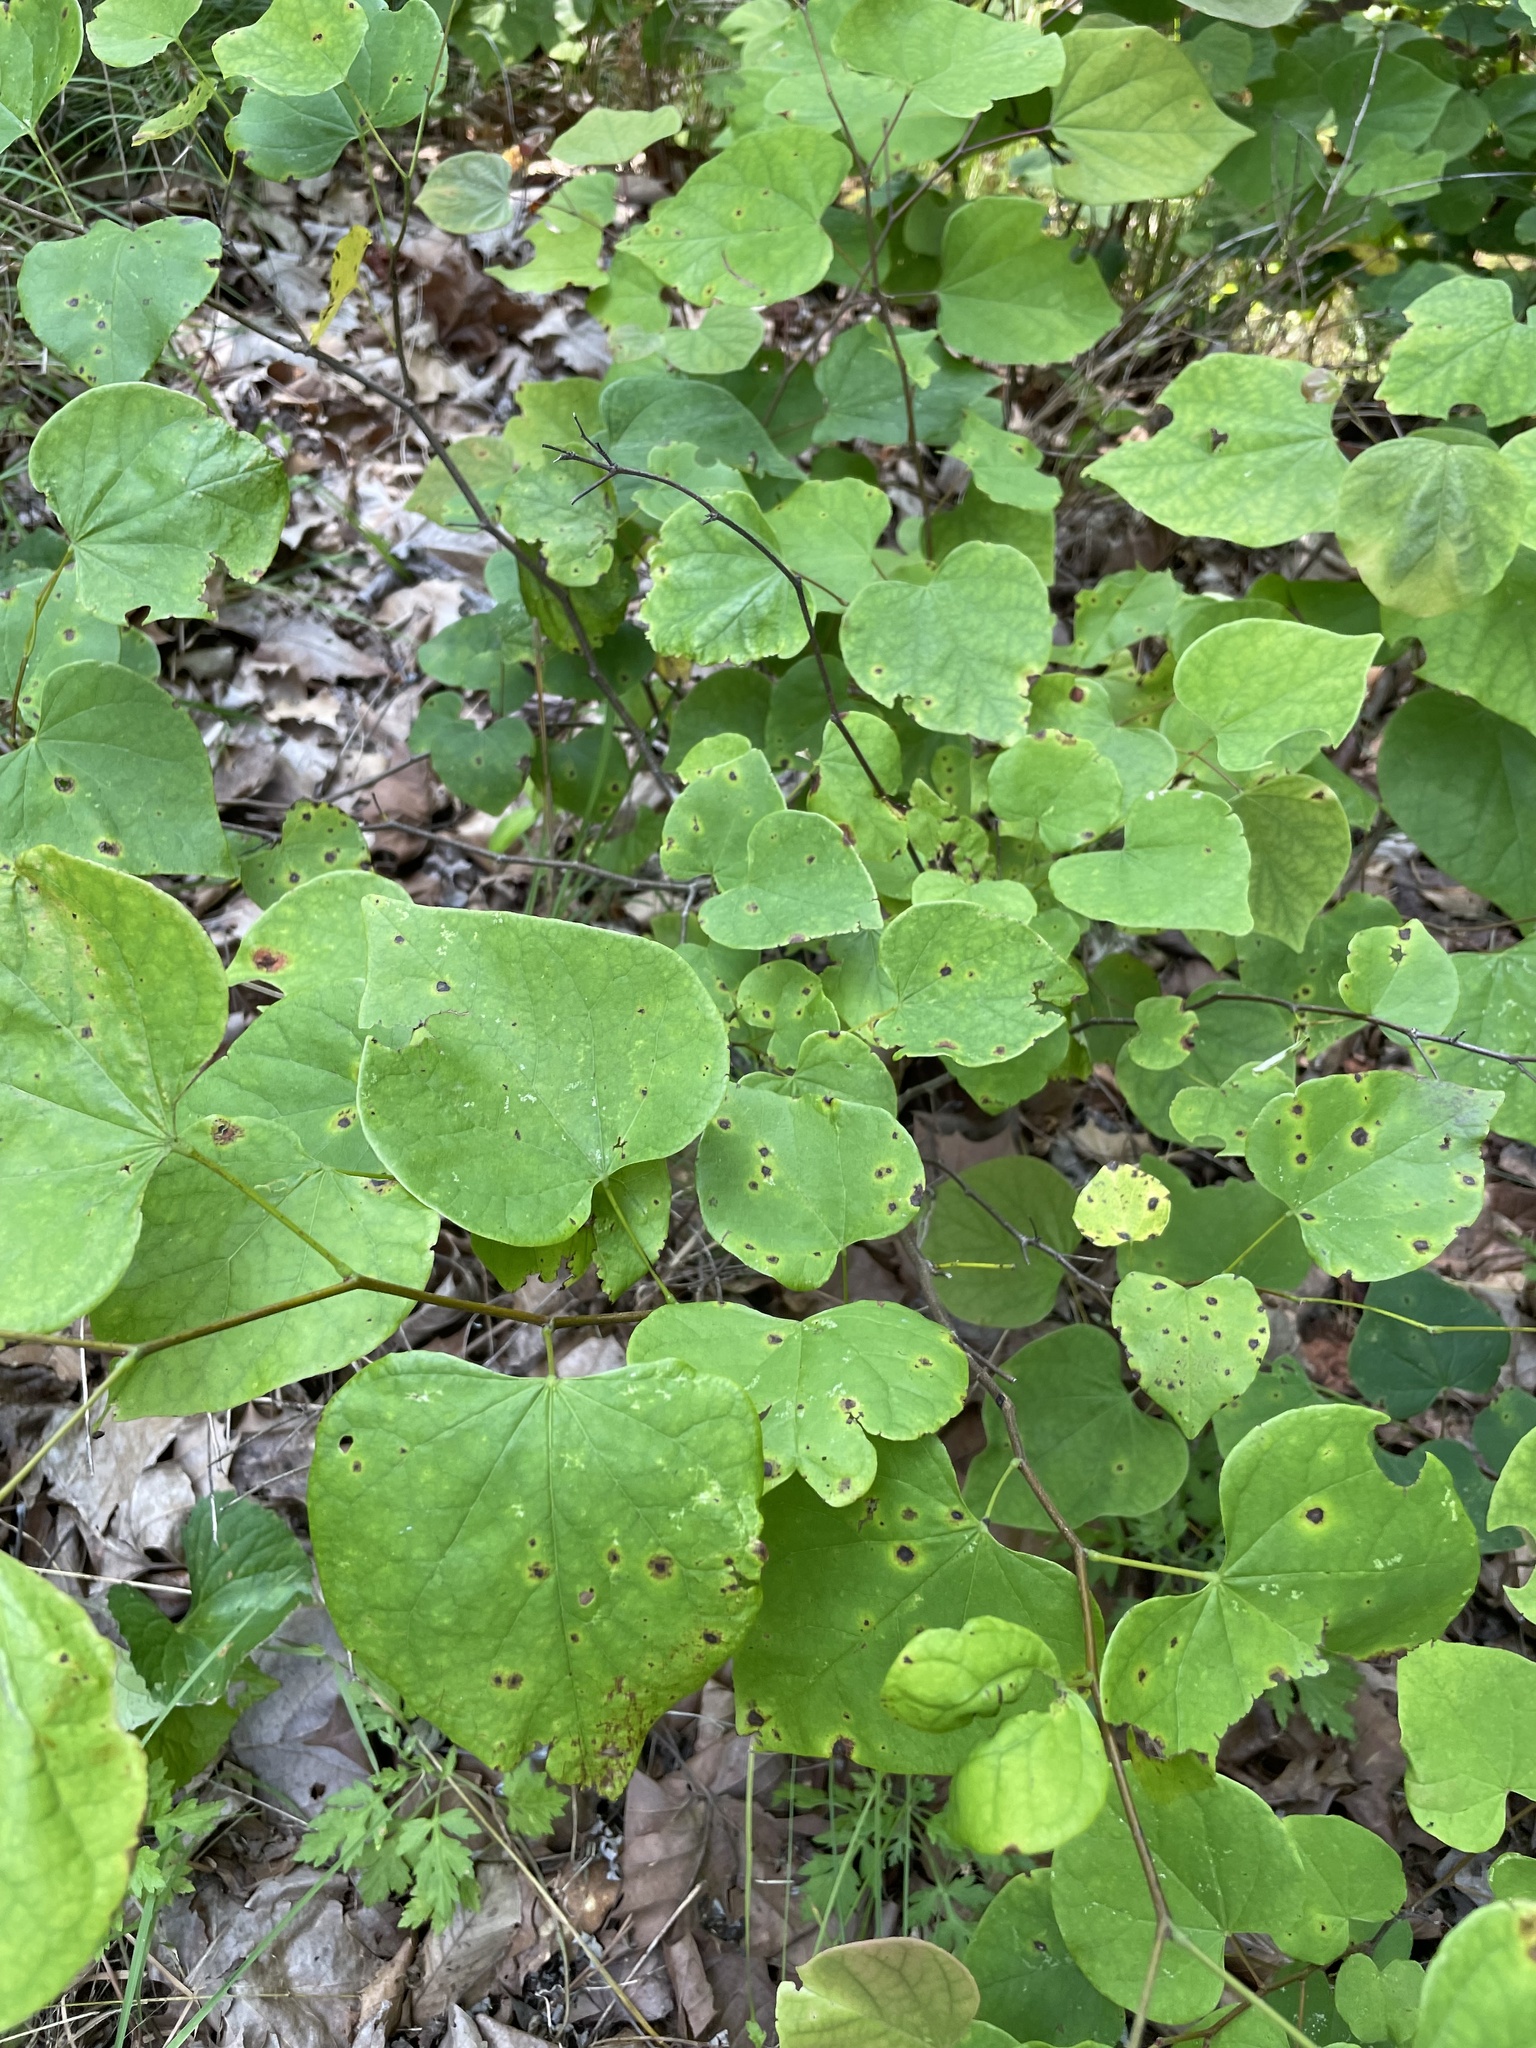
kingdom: Plantae
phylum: Tracheophyta
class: Magnoliopsida
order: Fabales
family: Fabaceae
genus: Cercis
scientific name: Cercis canadensis
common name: Eastern redbud
